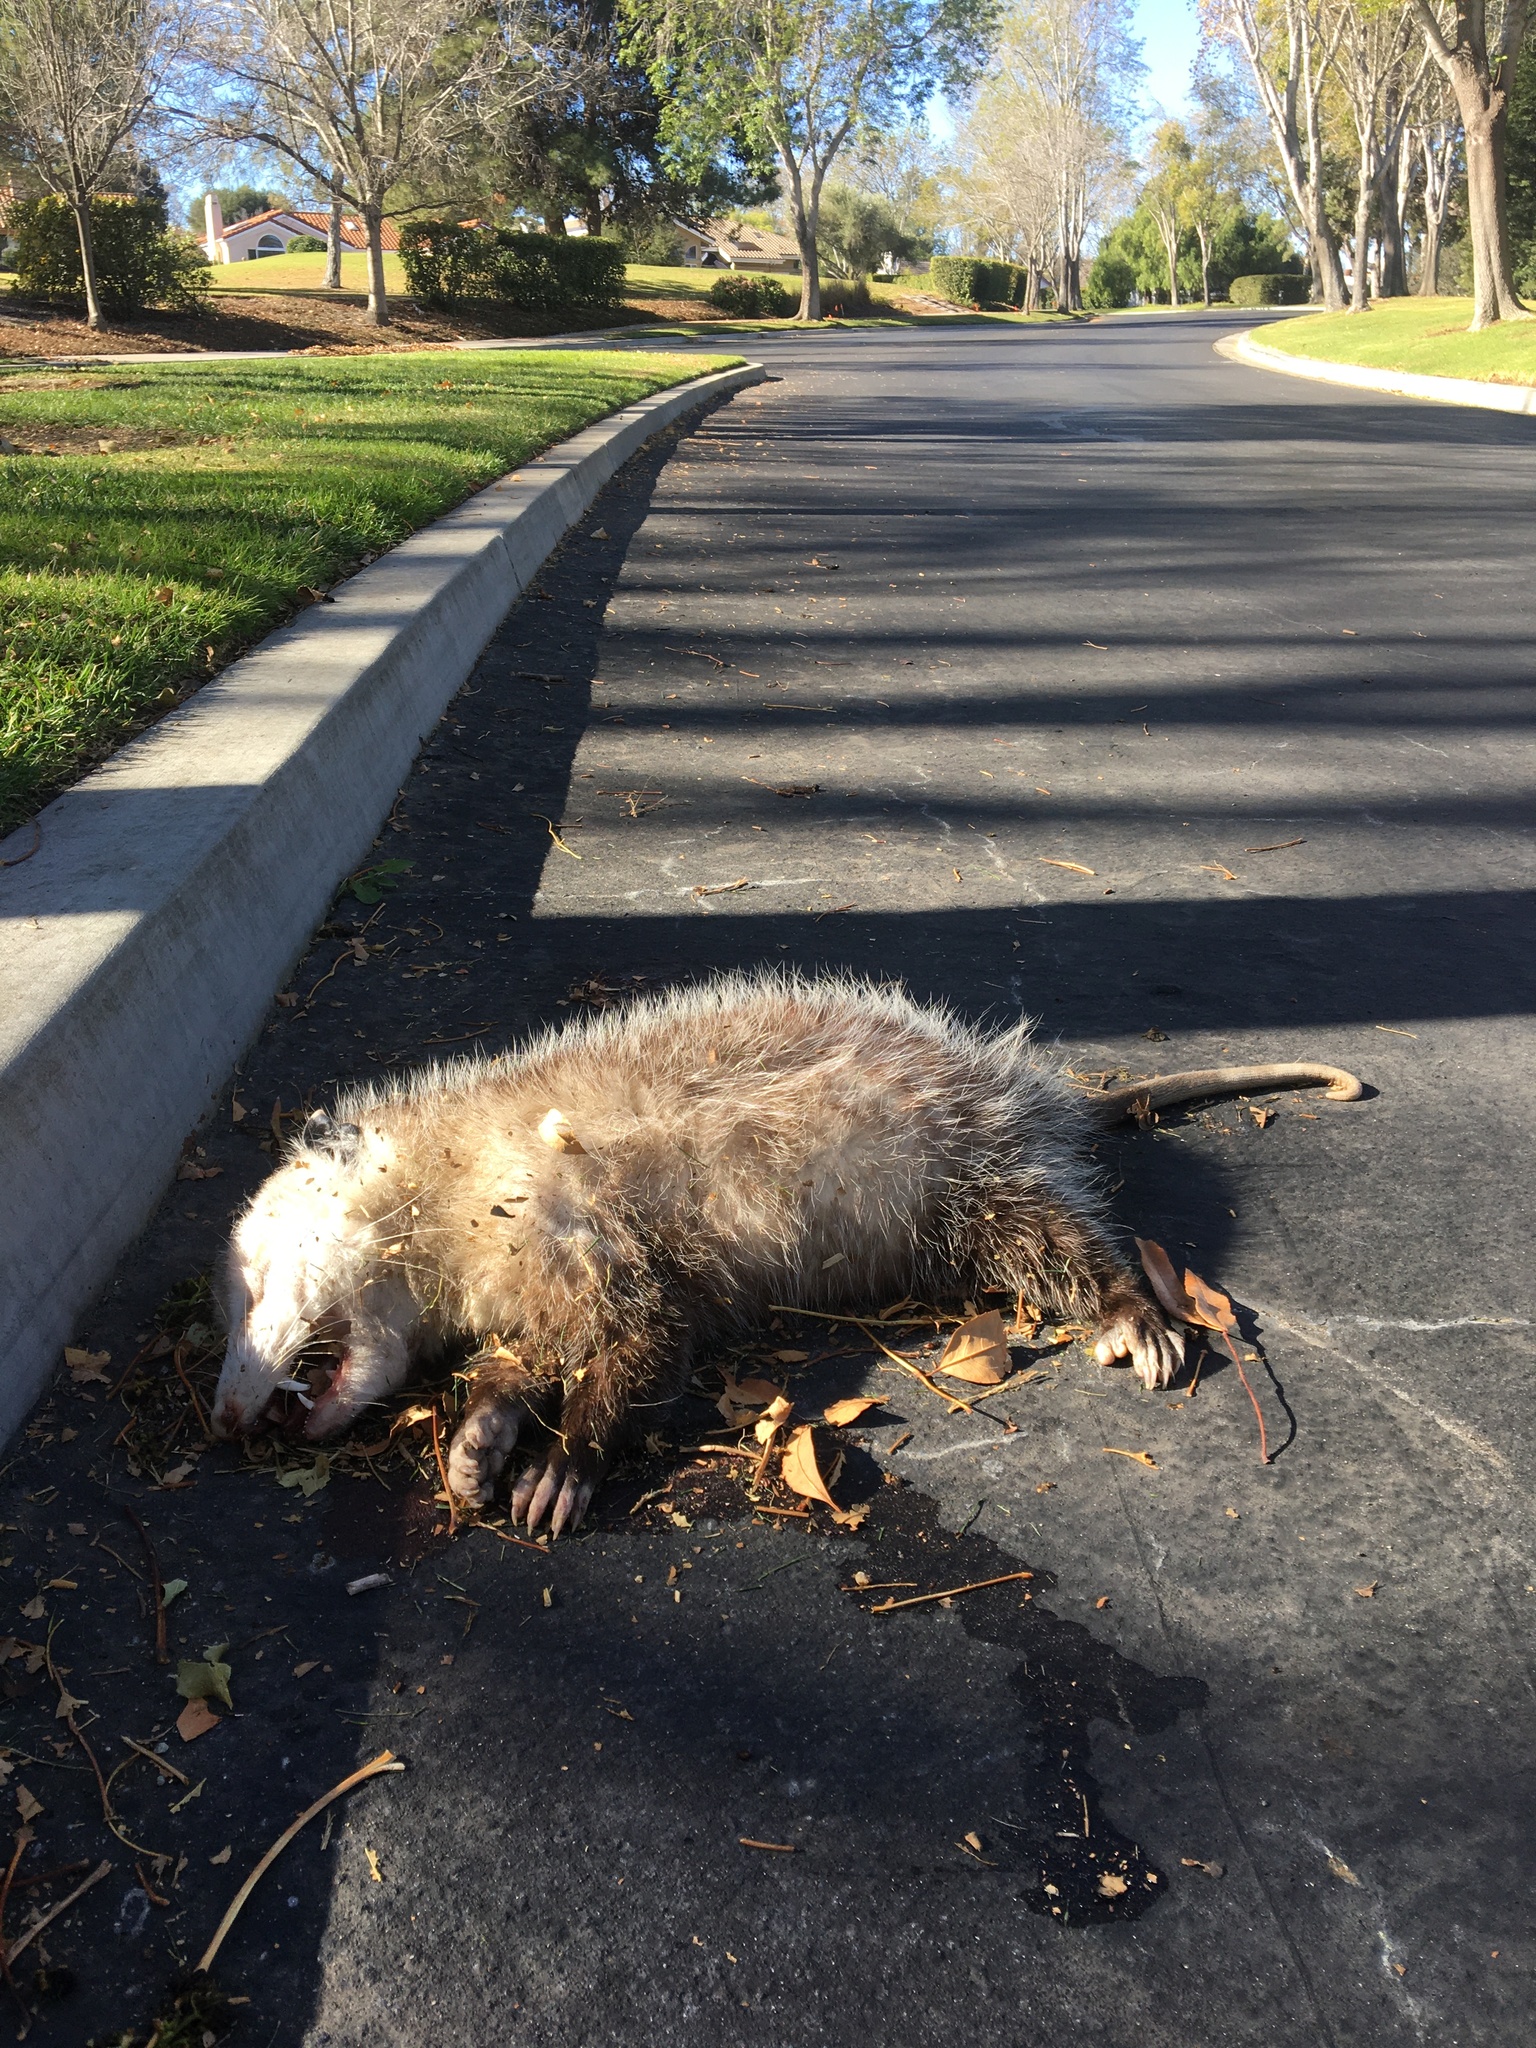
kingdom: Animalia
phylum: Chordata
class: Mammalia
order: Didelphimorphia
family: Didelphidae
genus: Didelphis
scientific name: Didelphis virginiana
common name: Virginia opossum
